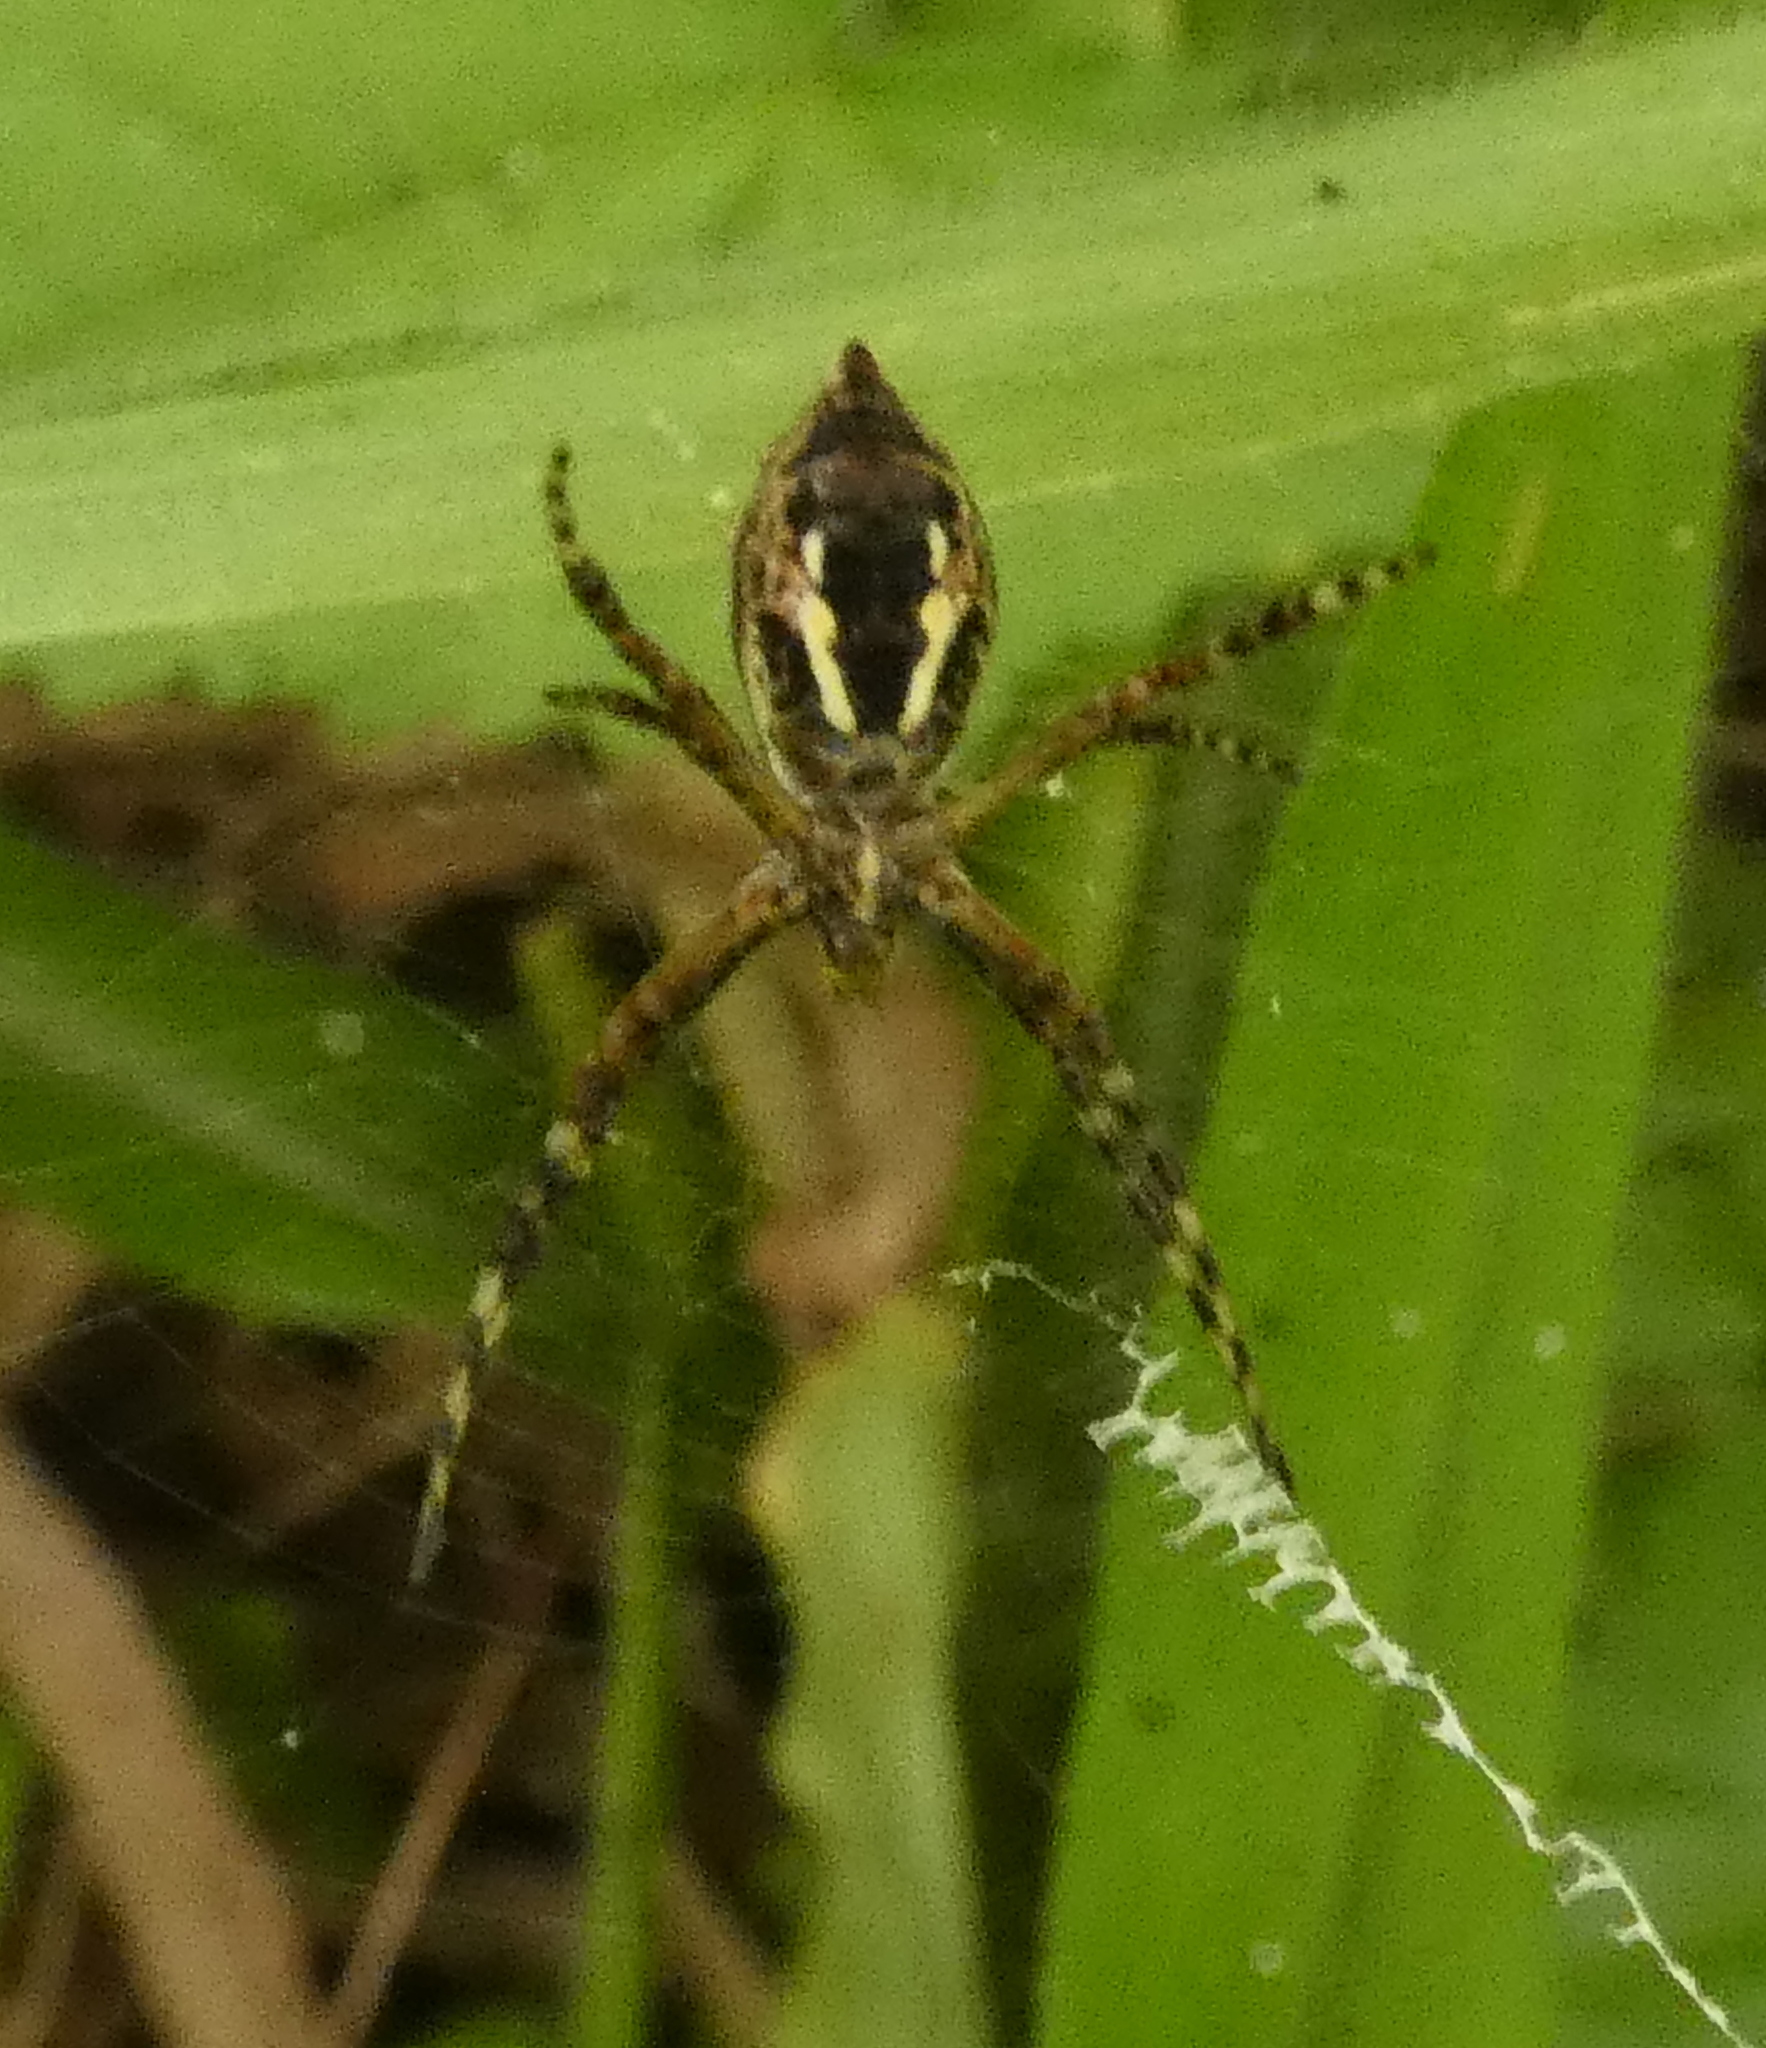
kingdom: Animalia
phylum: Arthropoda
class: Arachnida
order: Araneae
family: Araneidae
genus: Argiope
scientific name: Argiope argentata
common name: Orb weavers
